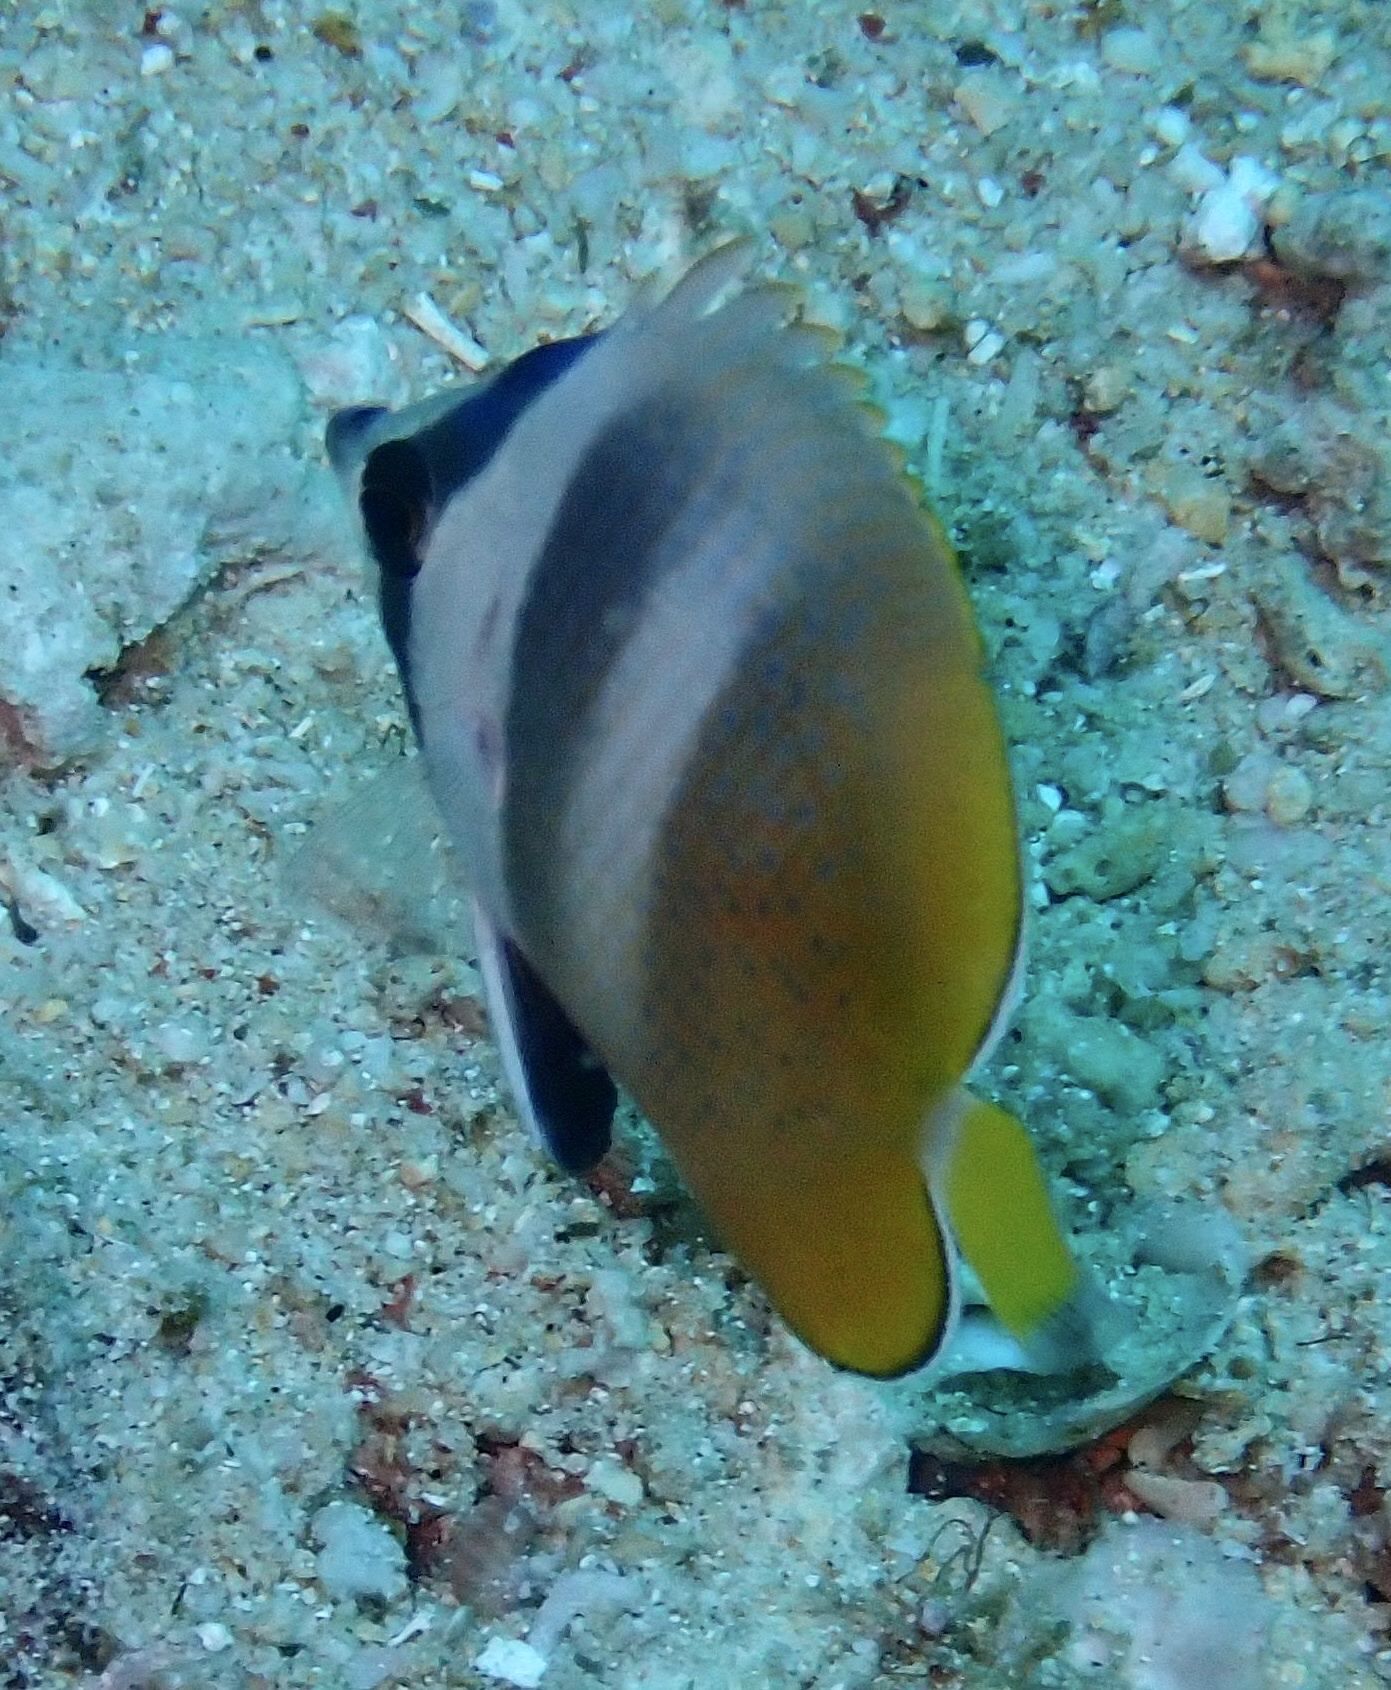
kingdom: Animalia
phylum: Chordata
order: Perciformes
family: Chaetodontidae
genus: Chaetodon
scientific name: Chaetodon kleinii
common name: Klein's butterflyfish
